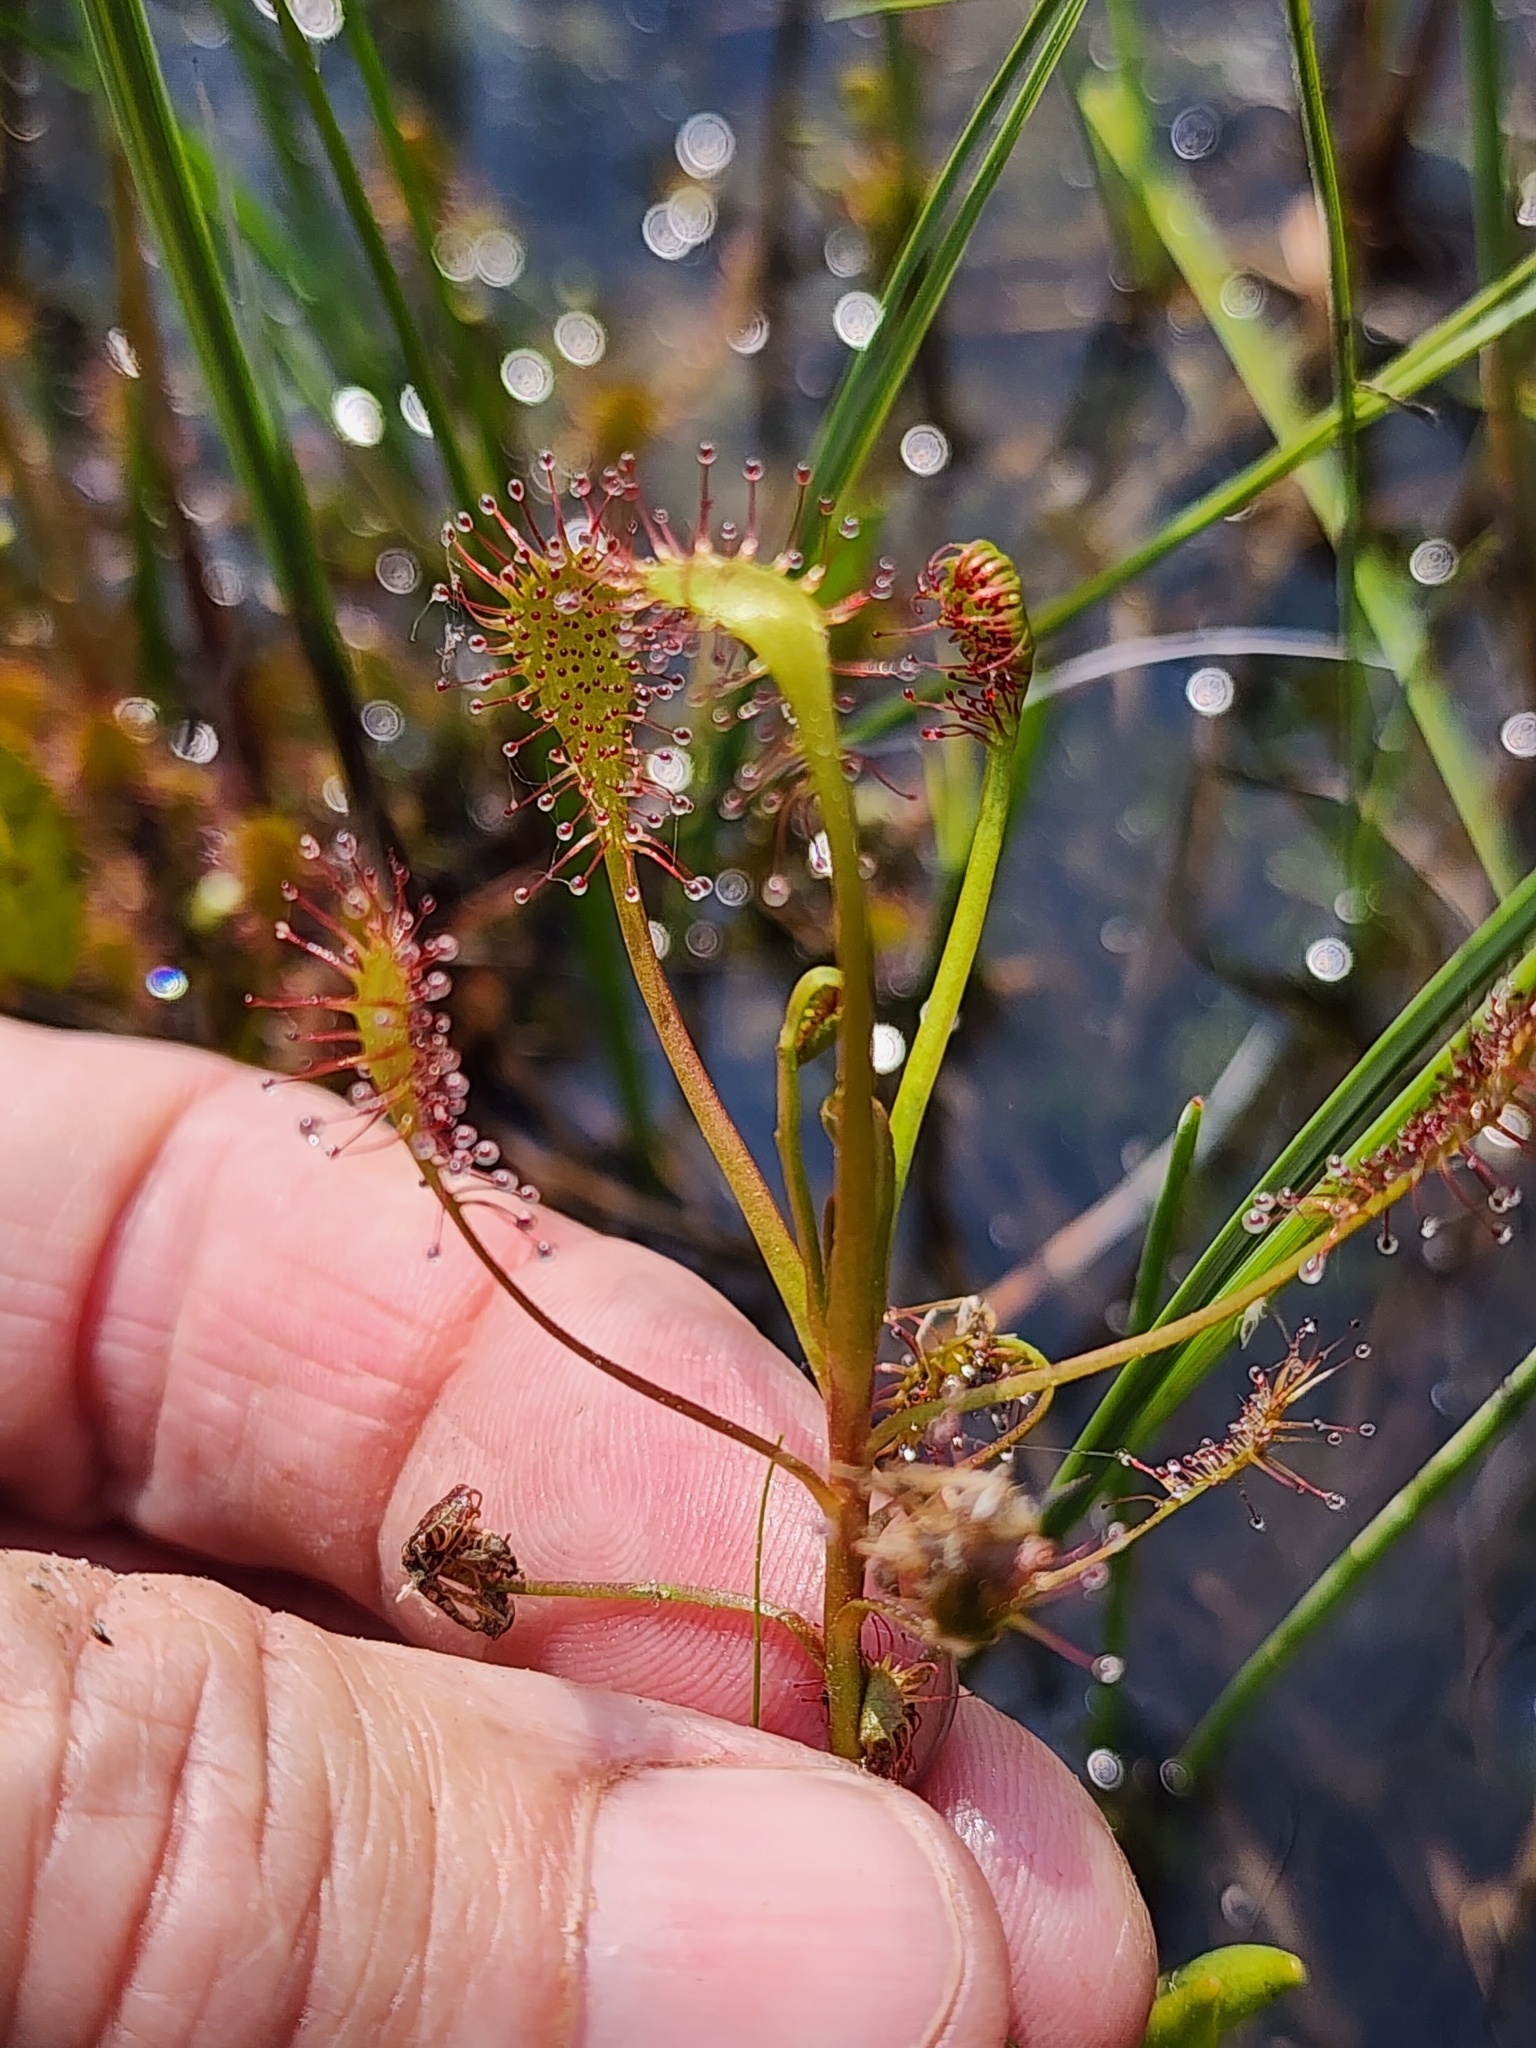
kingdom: Plantae
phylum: Tracheophyta
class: Magnoliopsida
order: Caryophyllales
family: Droseraceae
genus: Drosera
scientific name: Drosera intermedia
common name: Oblong-leaved sundew
